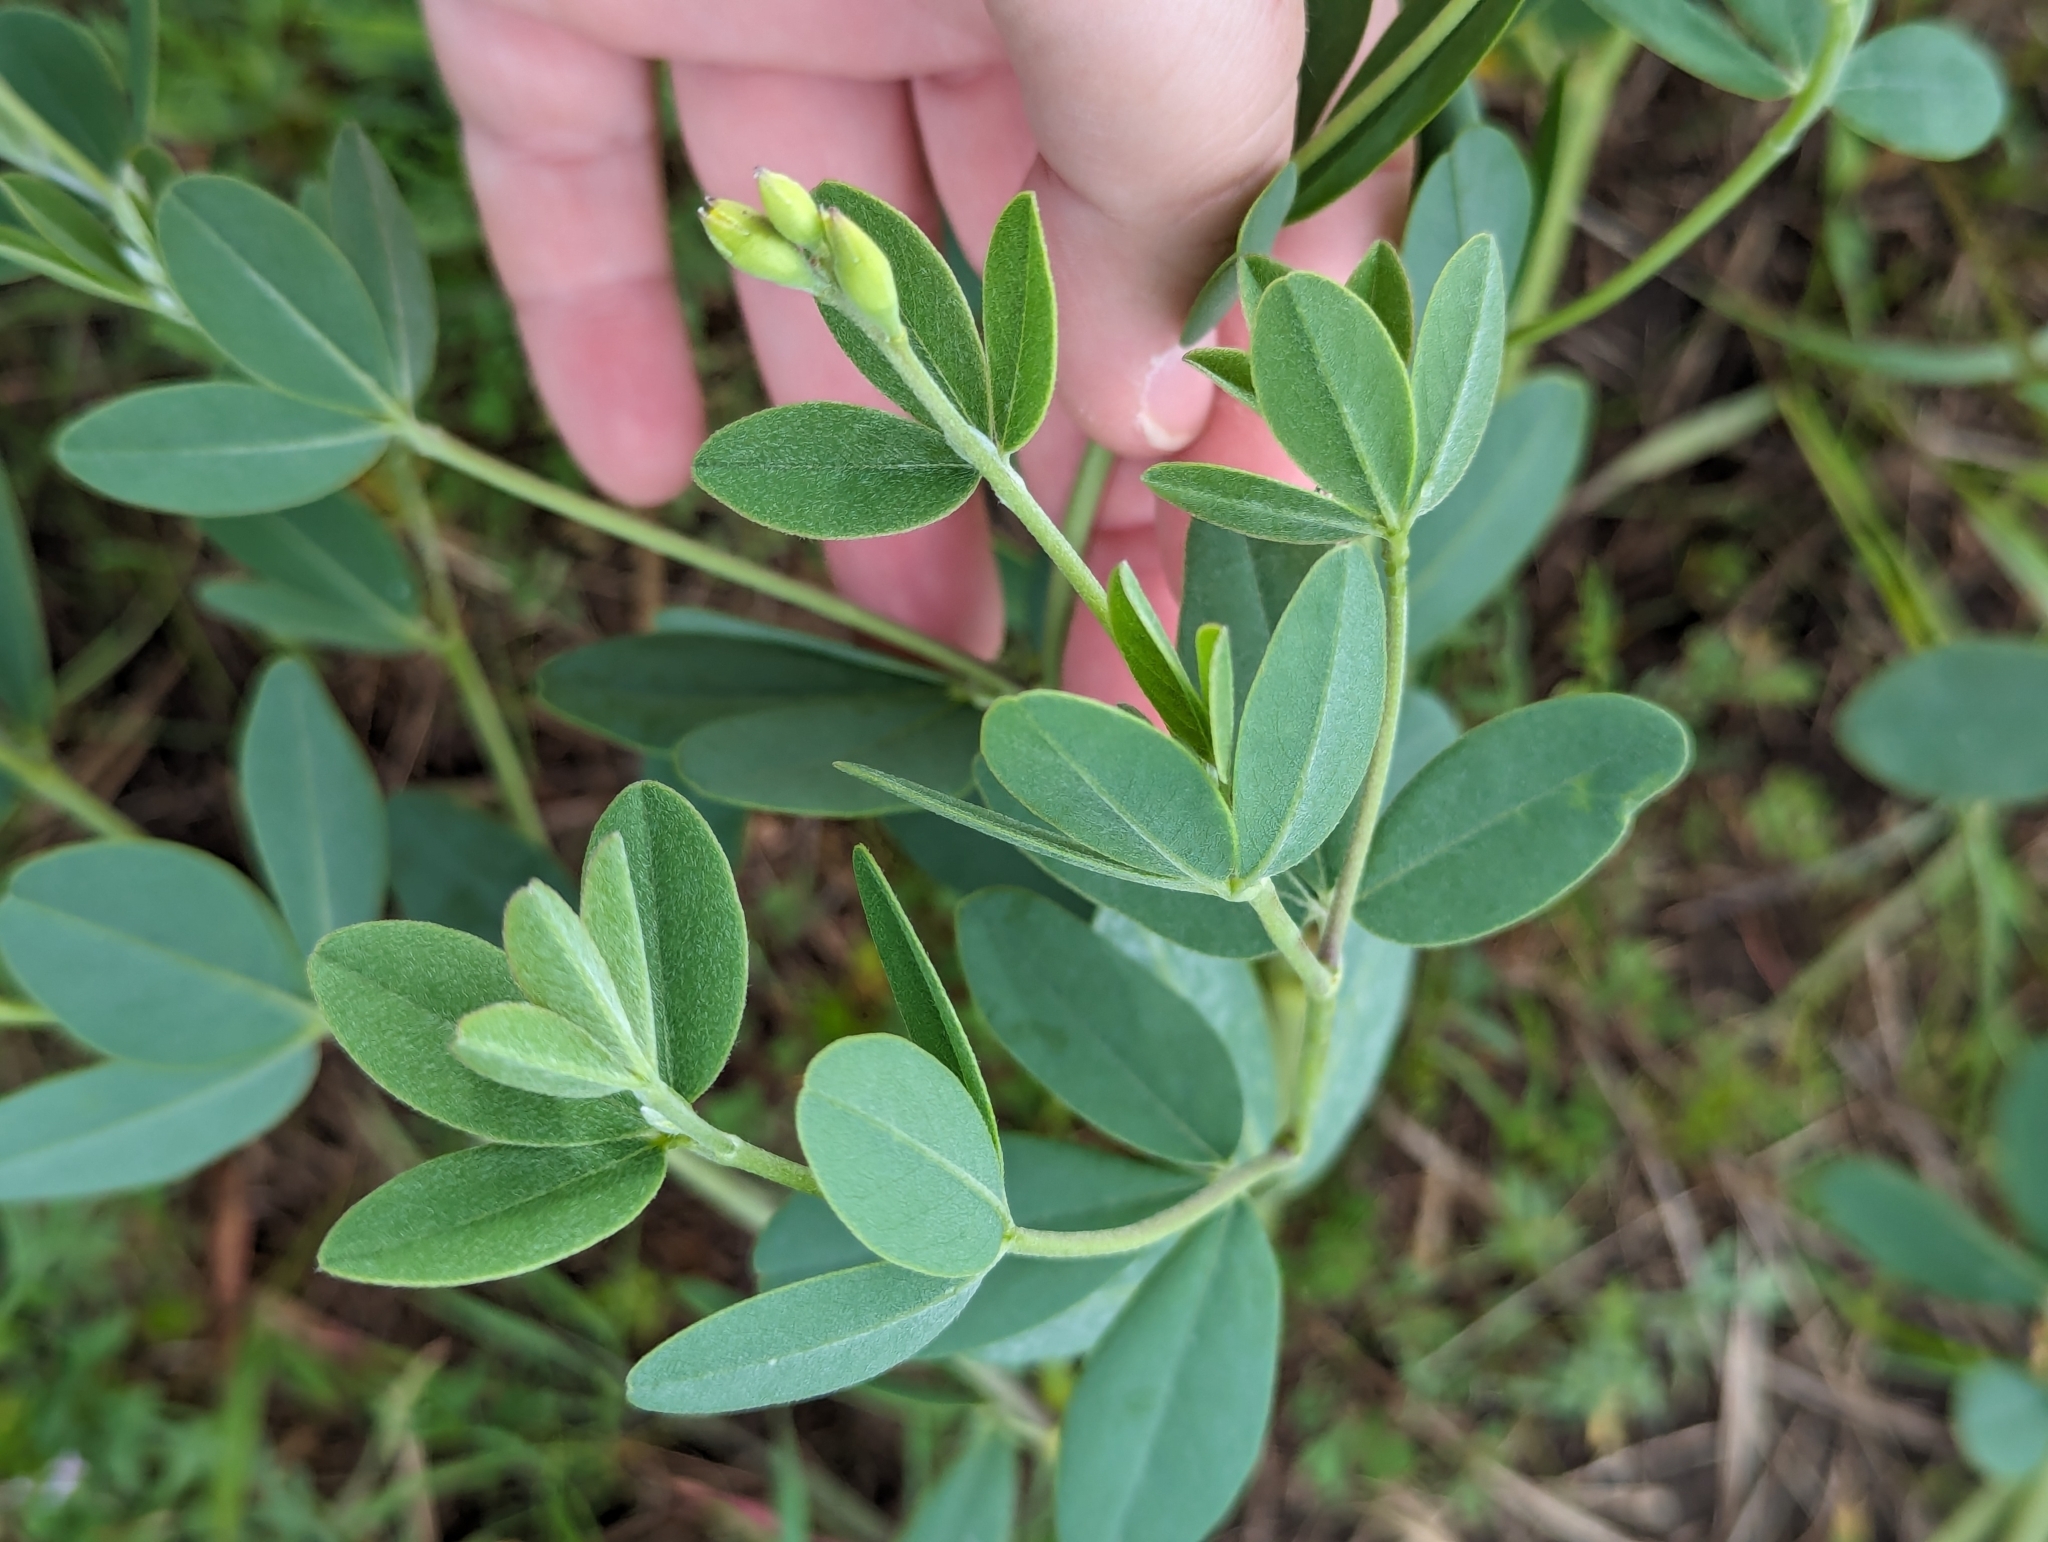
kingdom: Plantae
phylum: Tracheophyta
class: Magnoliopsida
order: Fabales
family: Fabaceae
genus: Baptisia
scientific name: Baptisia sphaerocarpa
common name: Round wild indigo
